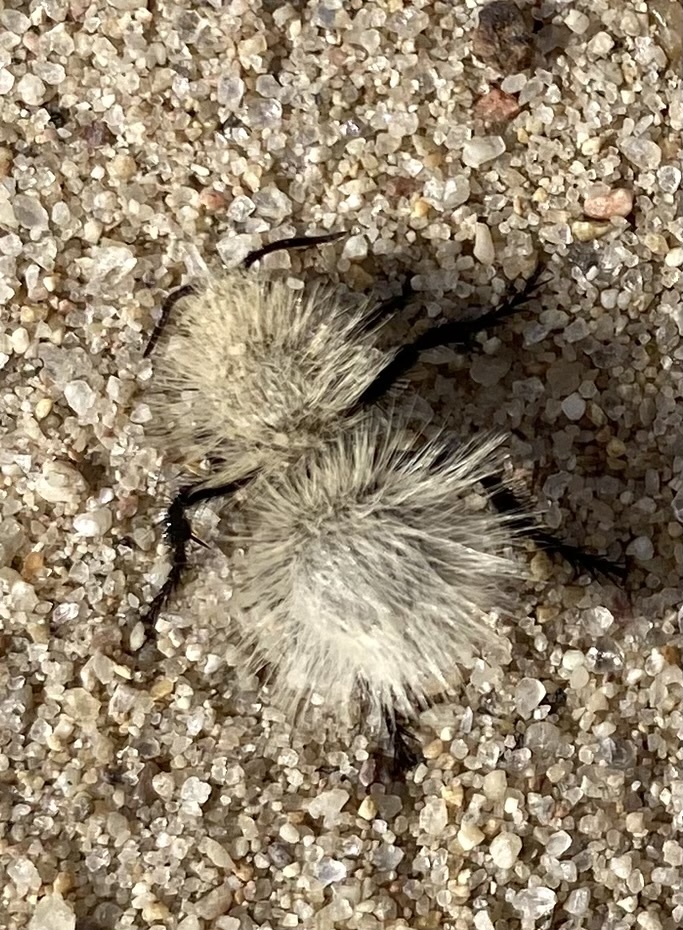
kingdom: Animalia
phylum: Arthropoda
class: Insecta
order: Hymenoptera
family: Mutillidae
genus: Dasymutilla
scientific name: Dasymutilla
